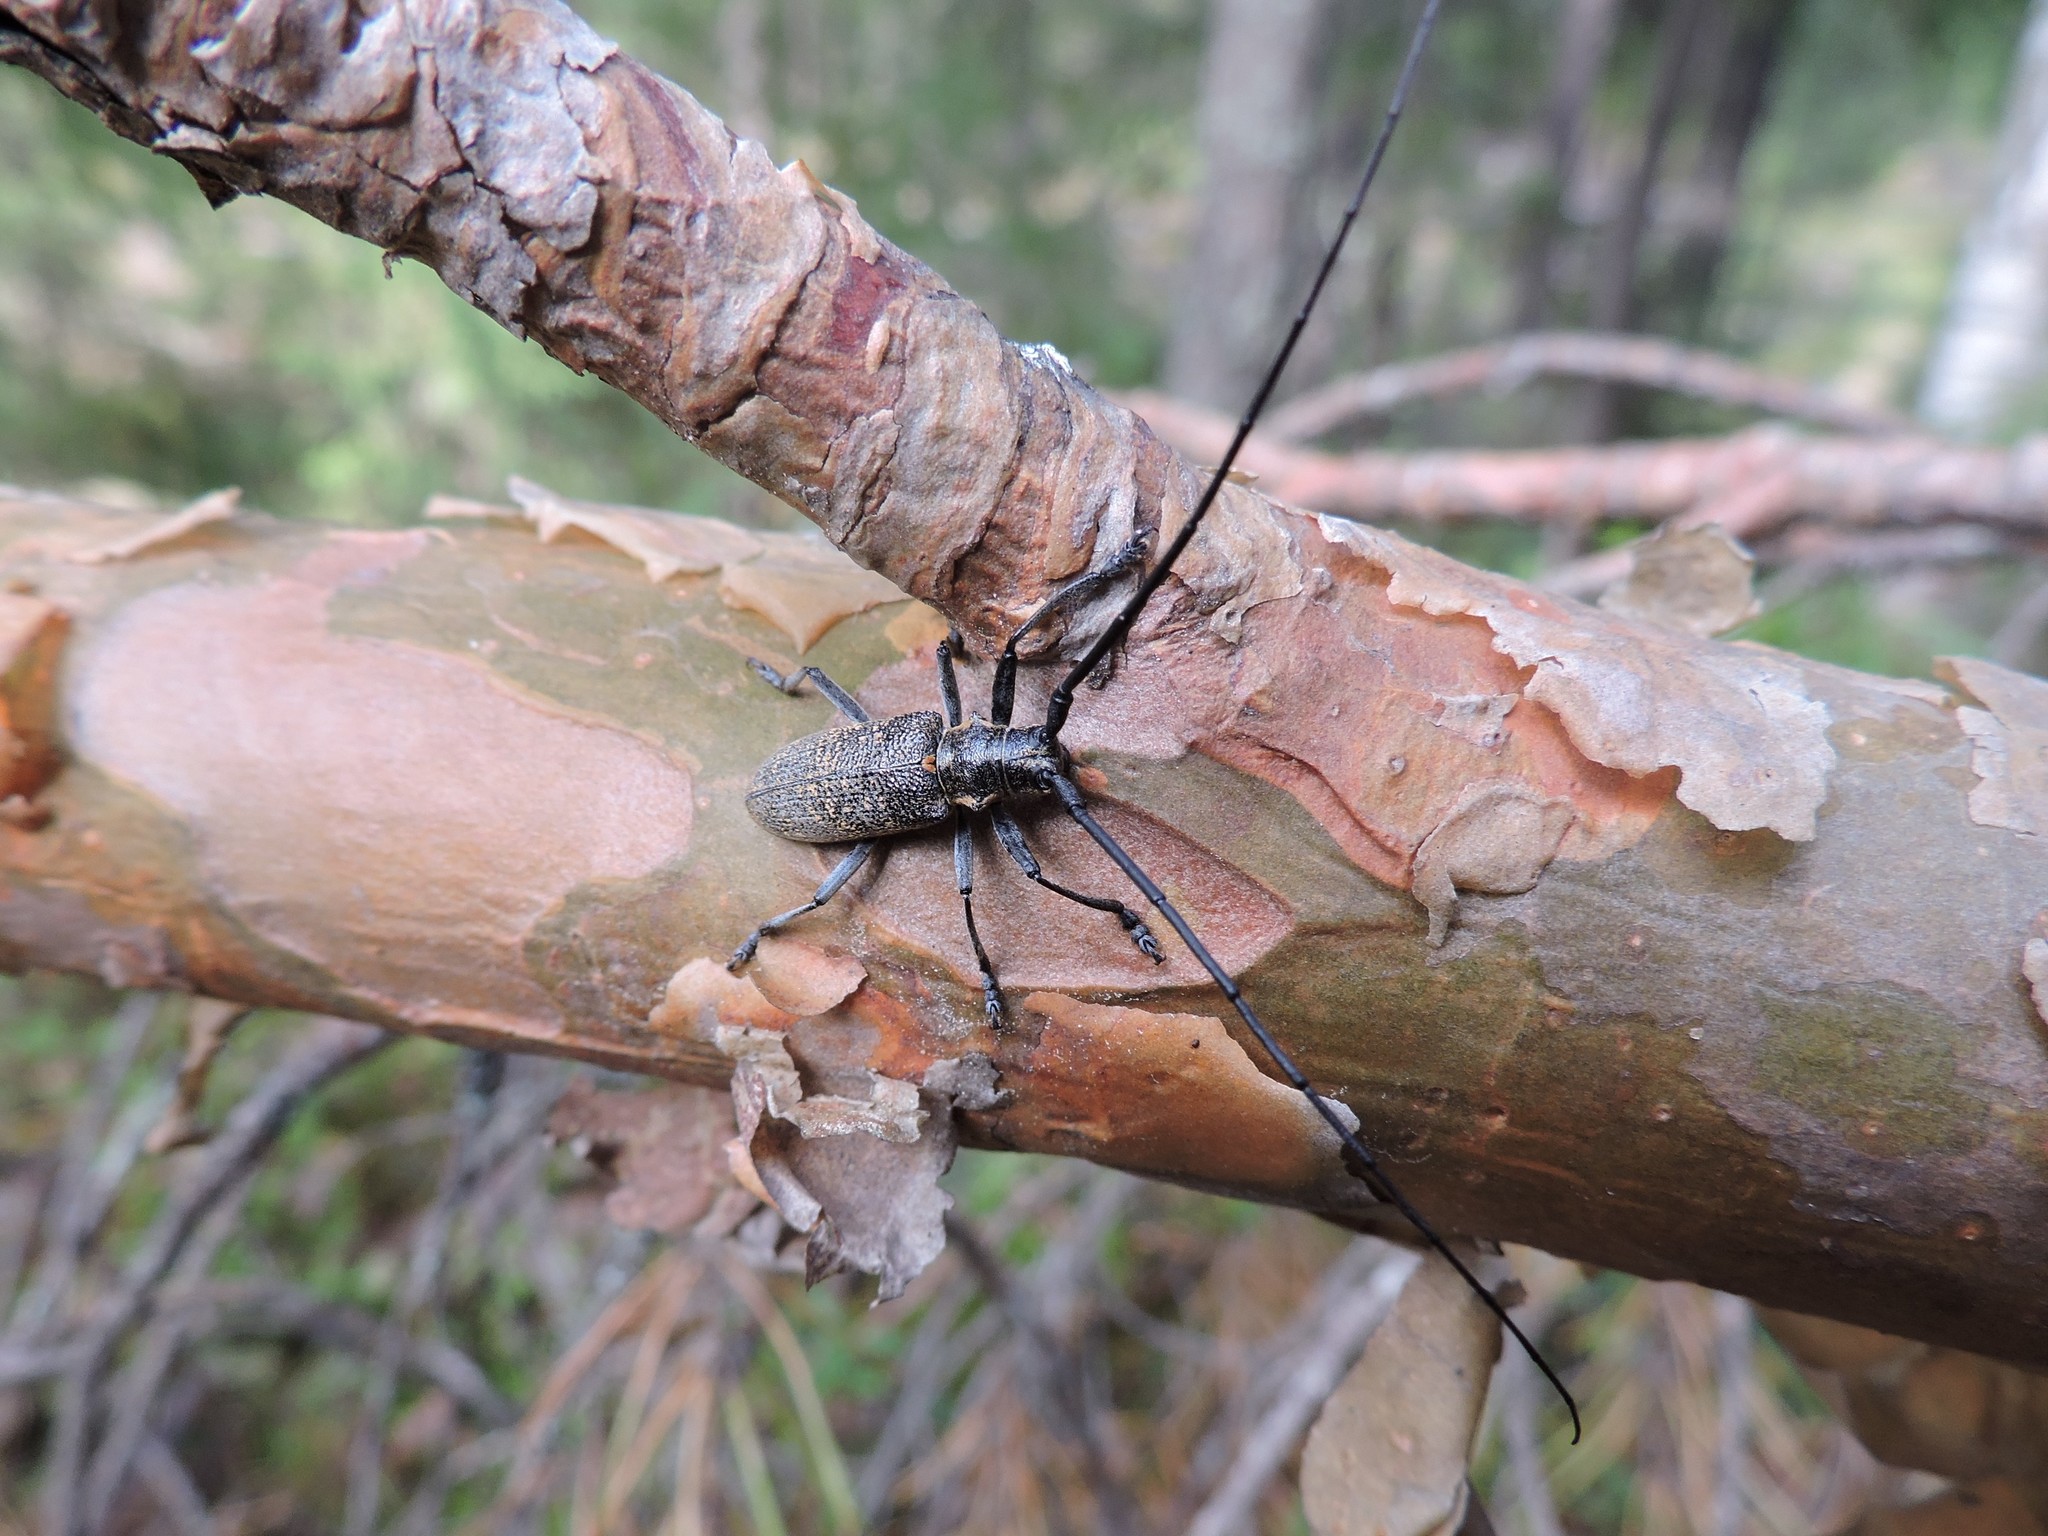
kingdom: Animalia
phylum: Arthropoda
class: Insecta
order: Coleoptera
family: Cerambycidae
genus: Monochamus
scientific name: Monochamus galloprovincialis
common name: Pine sawyer
